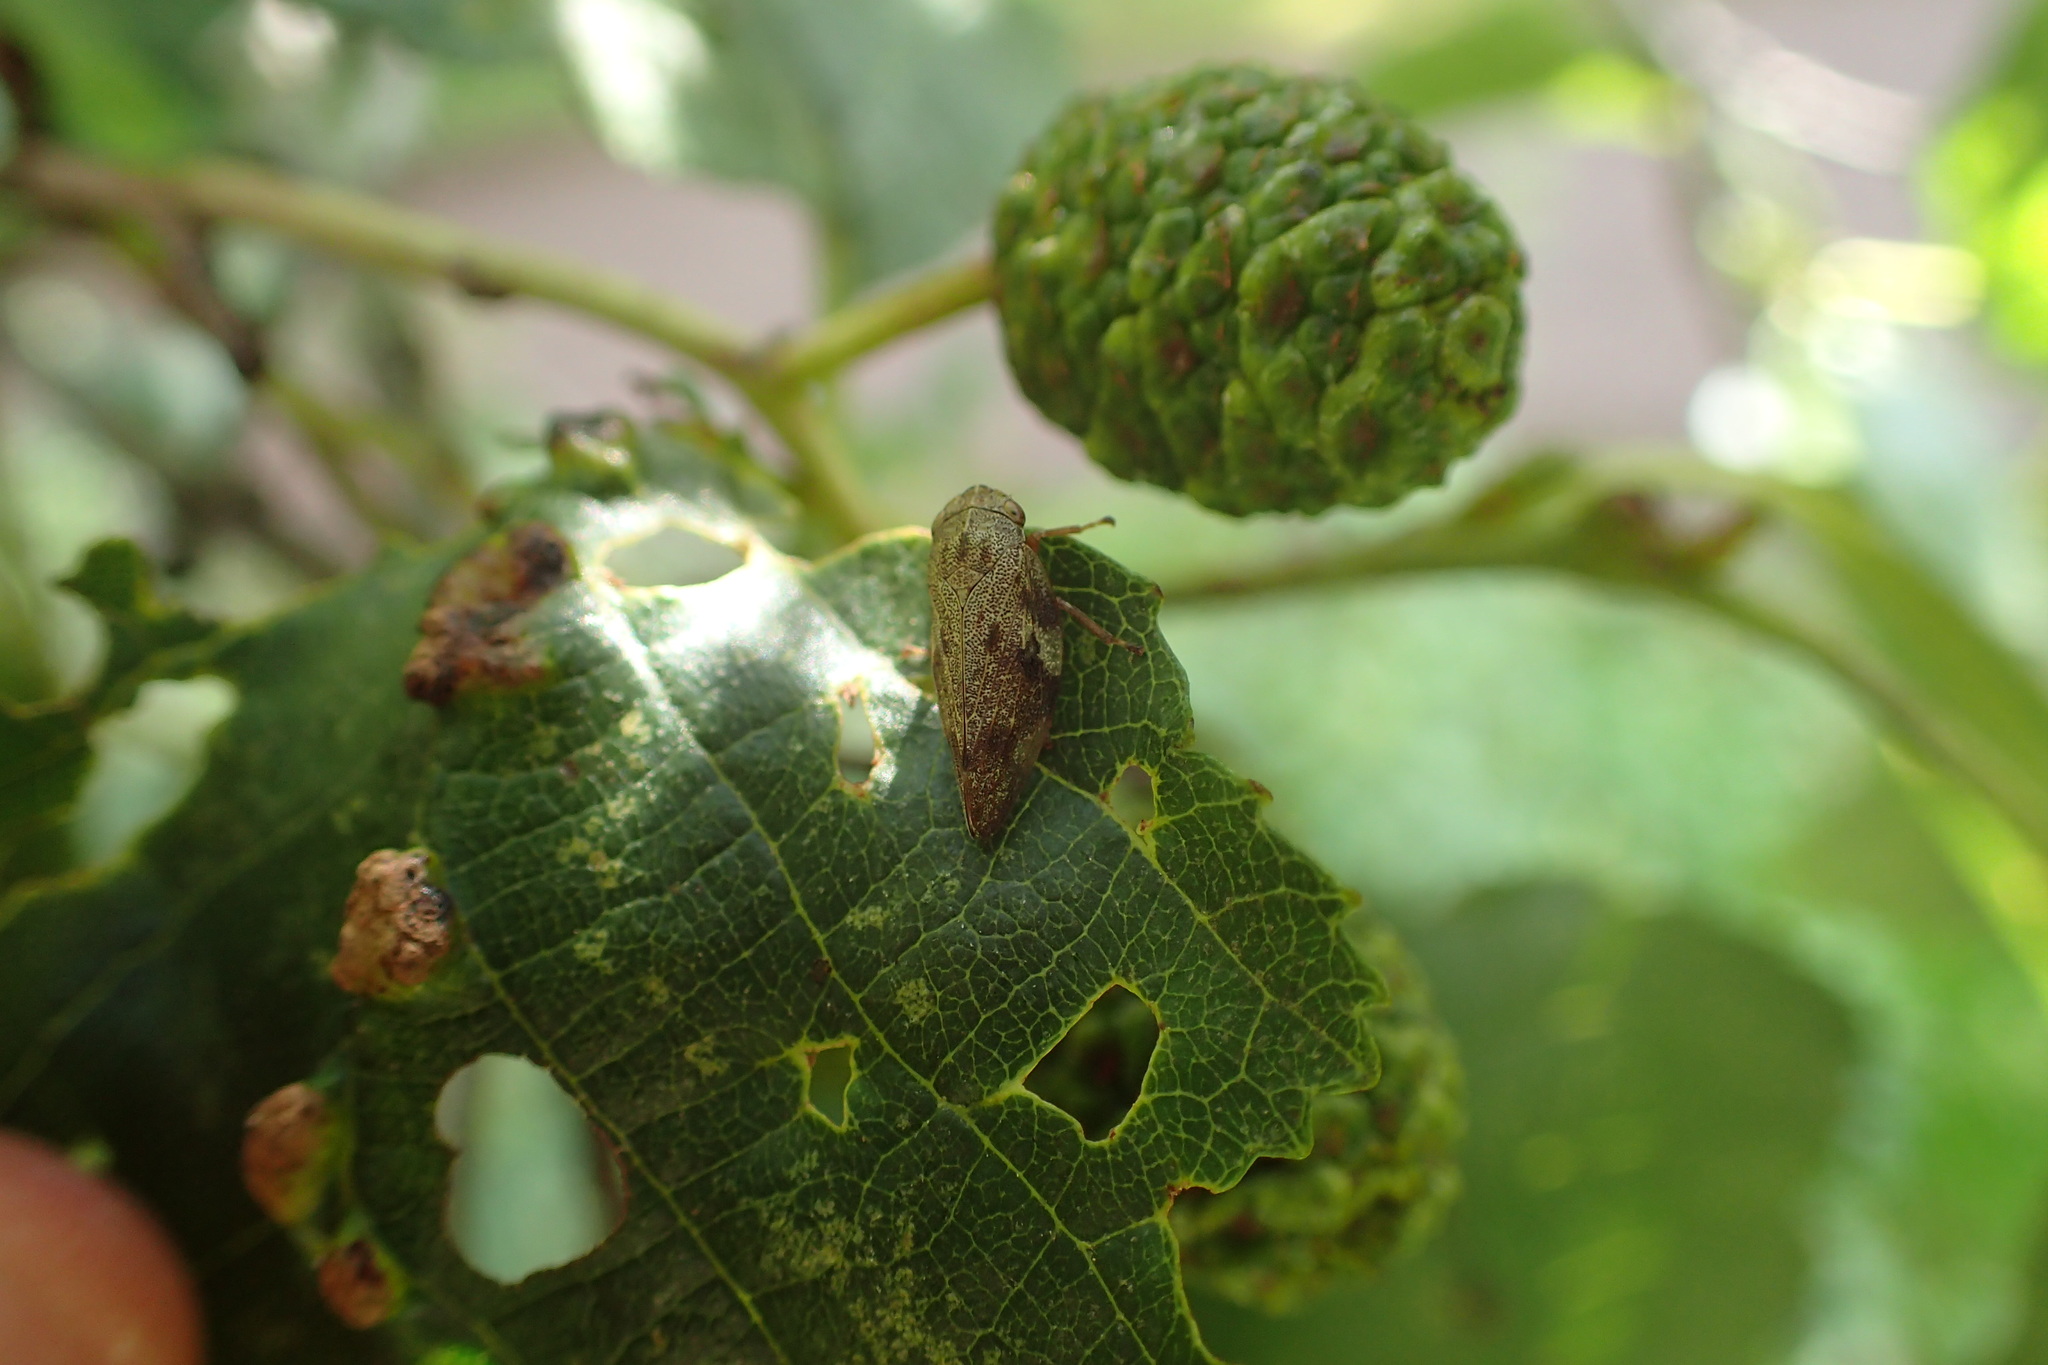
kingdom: Animalia
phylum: Arthropoda
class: Insecta
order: Hemiptera
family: Aphrophoridae
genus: Aphrophora
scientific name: Aphrophora alni
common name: European alder spittlebug
